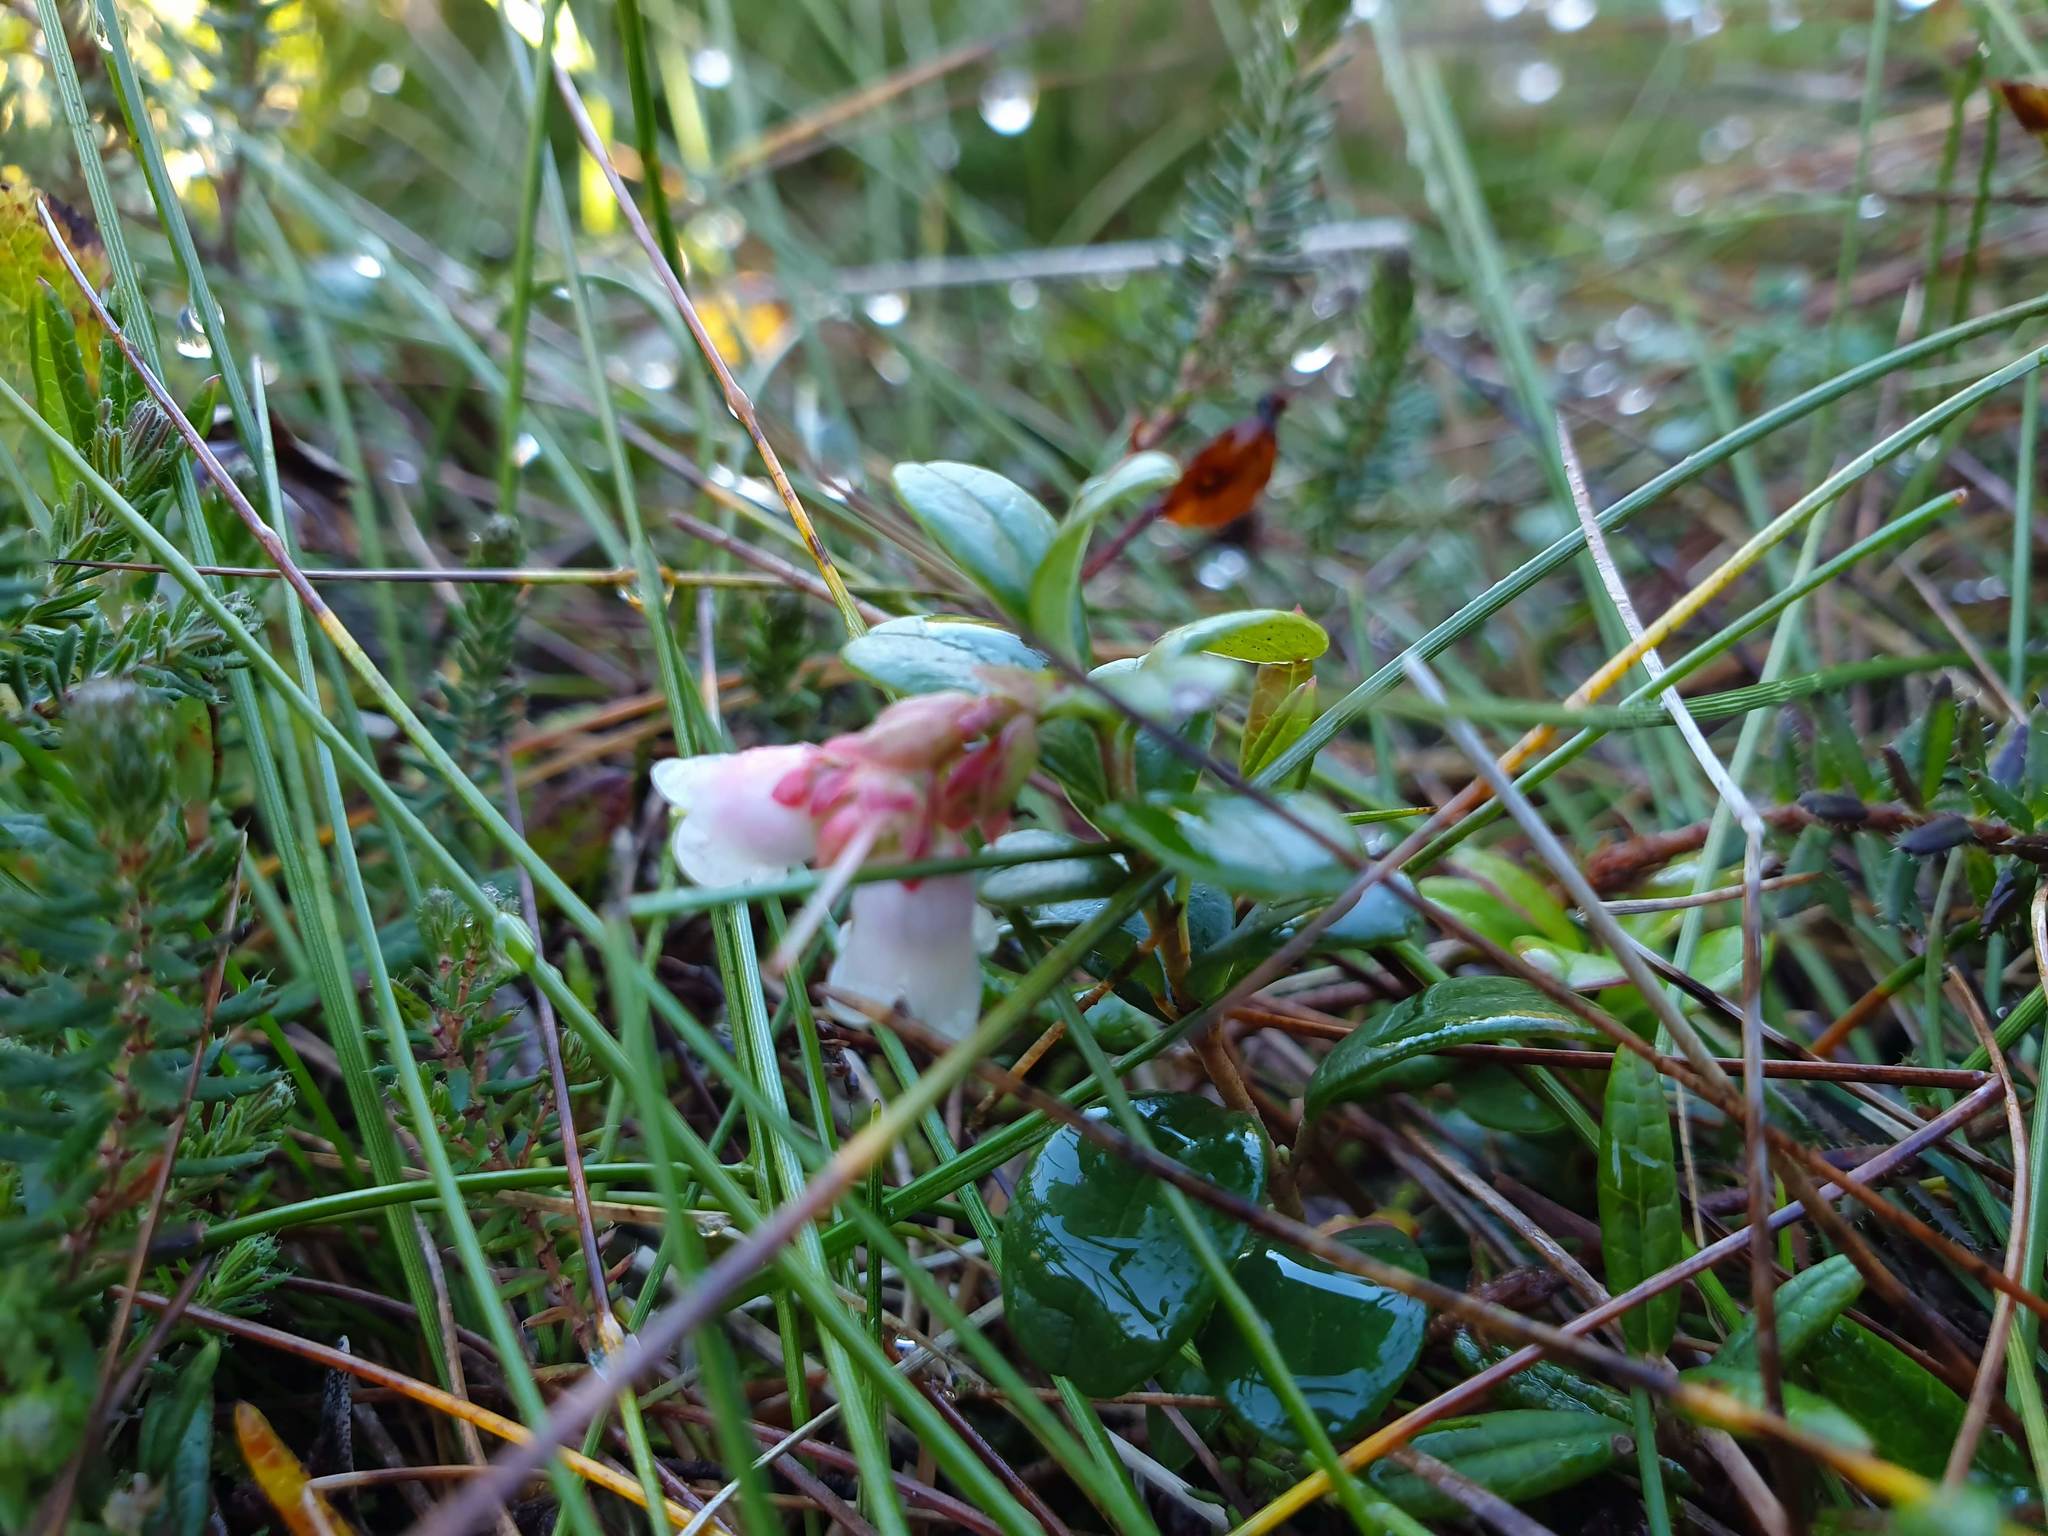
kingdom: Plantae
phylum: Tracheophyta
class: Magnoliopsida
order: Ericales
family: Ericaceae
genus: Vaccinium
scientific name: Vaccinium vitis-idaea
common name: Cowberry
